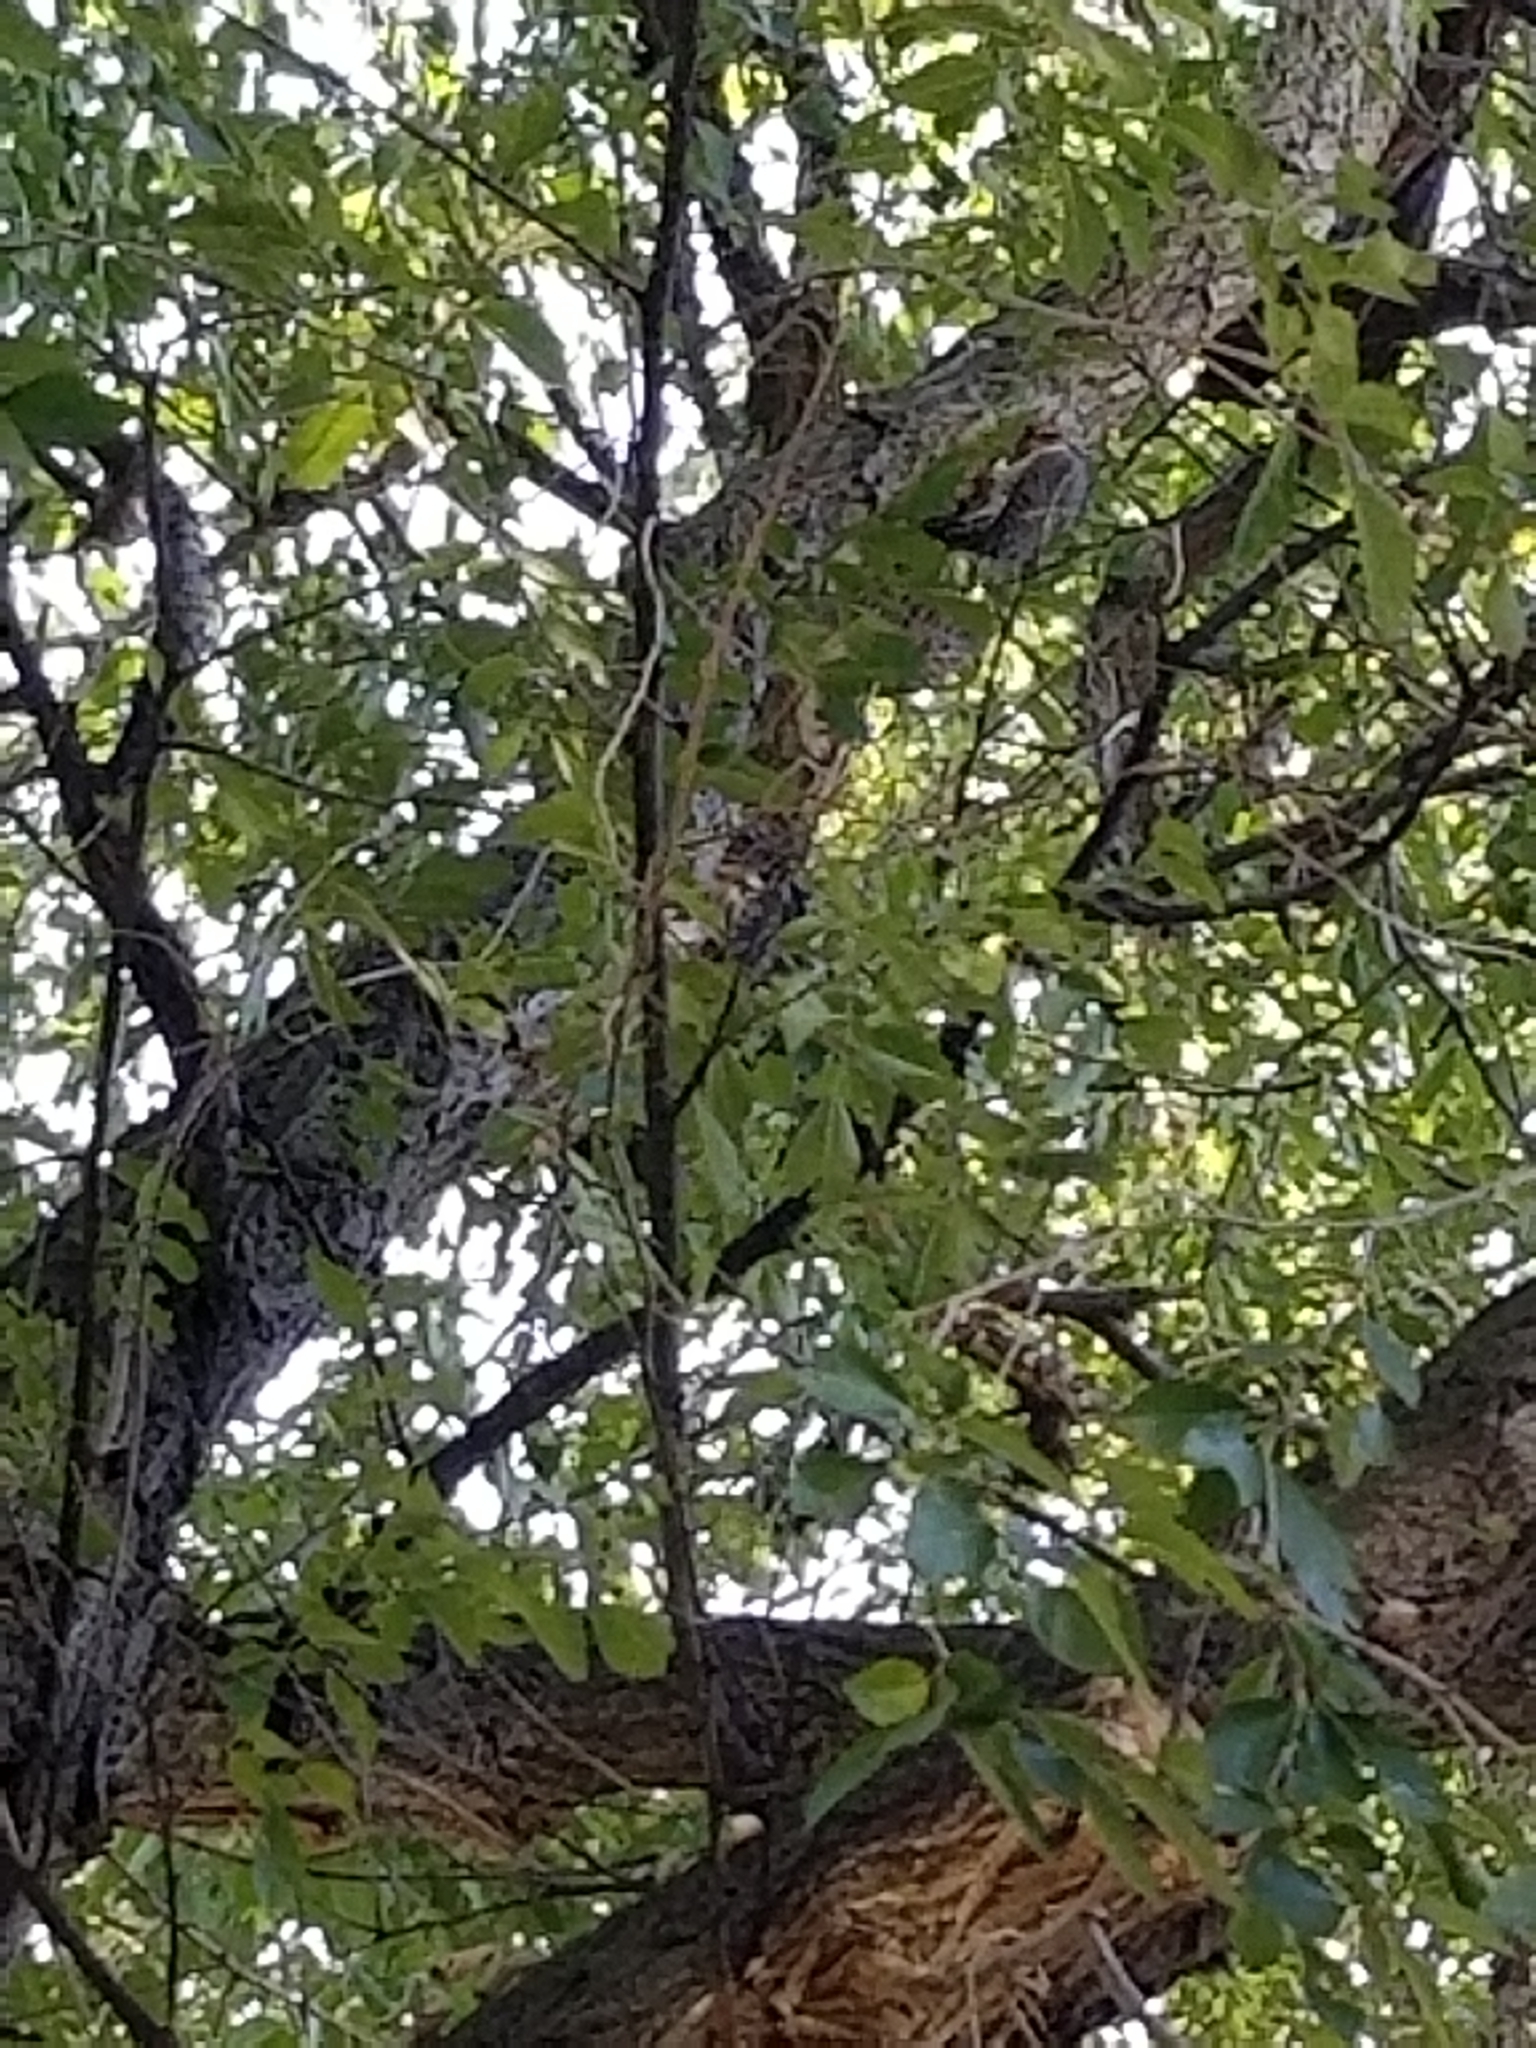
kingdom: Animalia
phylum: Chordata
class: Aves
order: Piciformes
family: Picidae
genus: Colaptes
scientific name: Colaptes auratus
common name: Northern flicker
